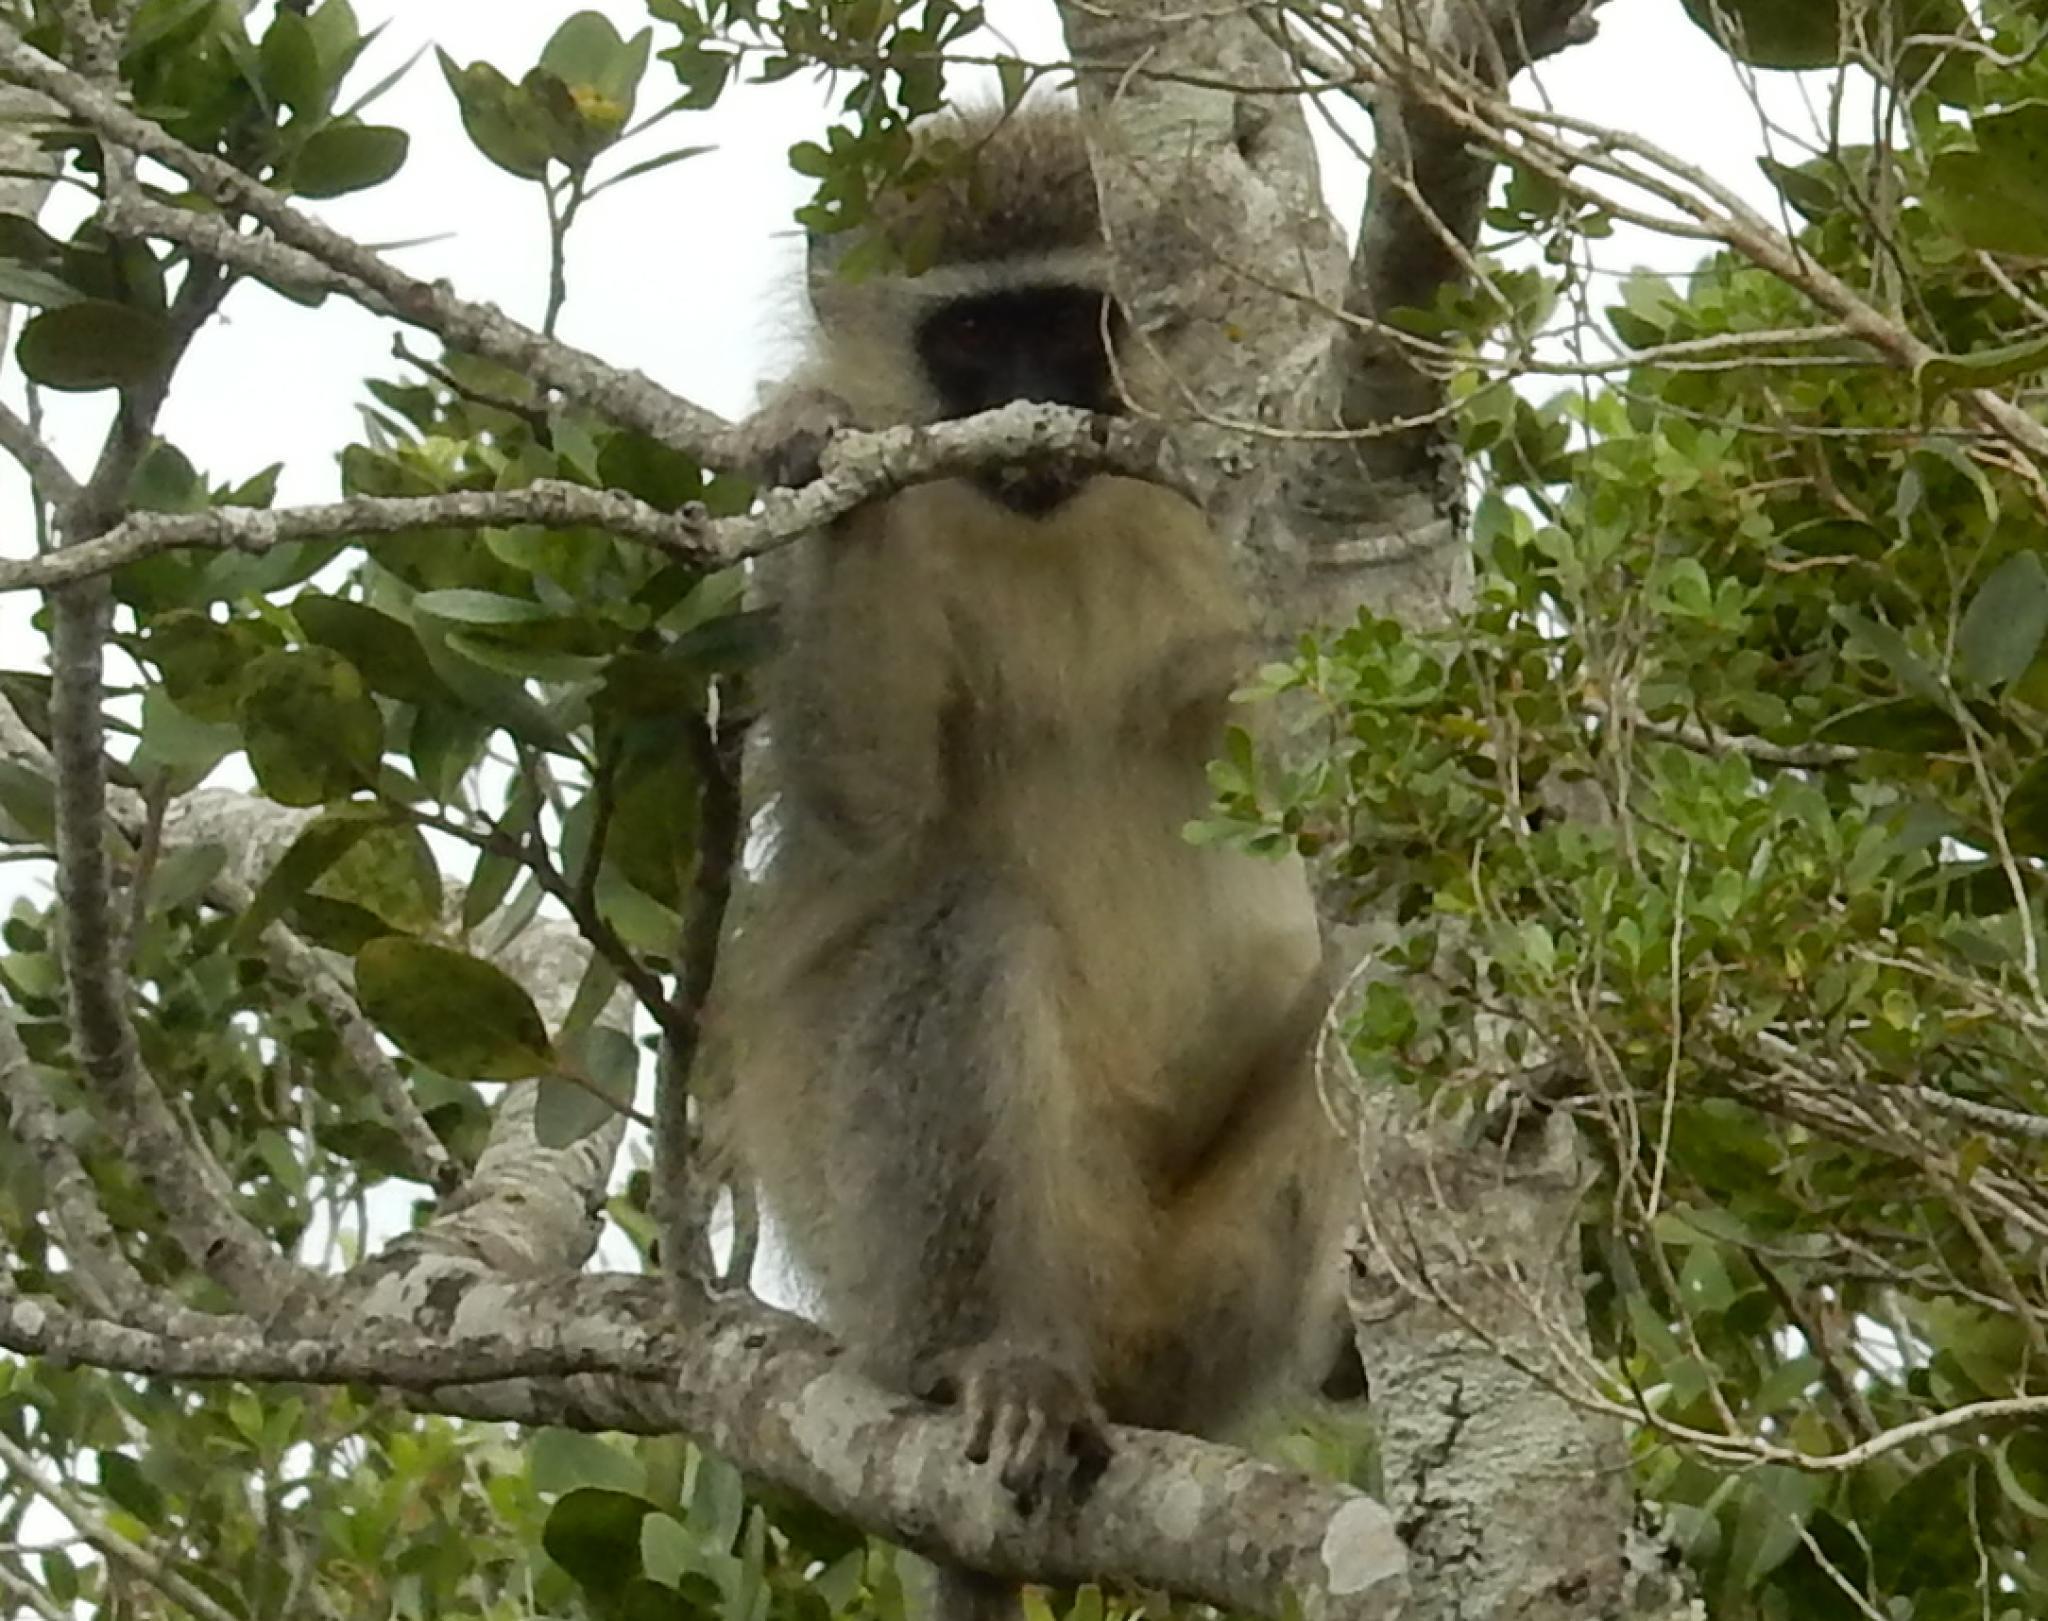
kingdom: Animalia
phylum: Chordata
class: Mammalia
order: Primates
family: Cercopithecidae
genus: Chlorocebus
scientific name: Chlorocebus pygerythrus
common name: Vervet monkey
